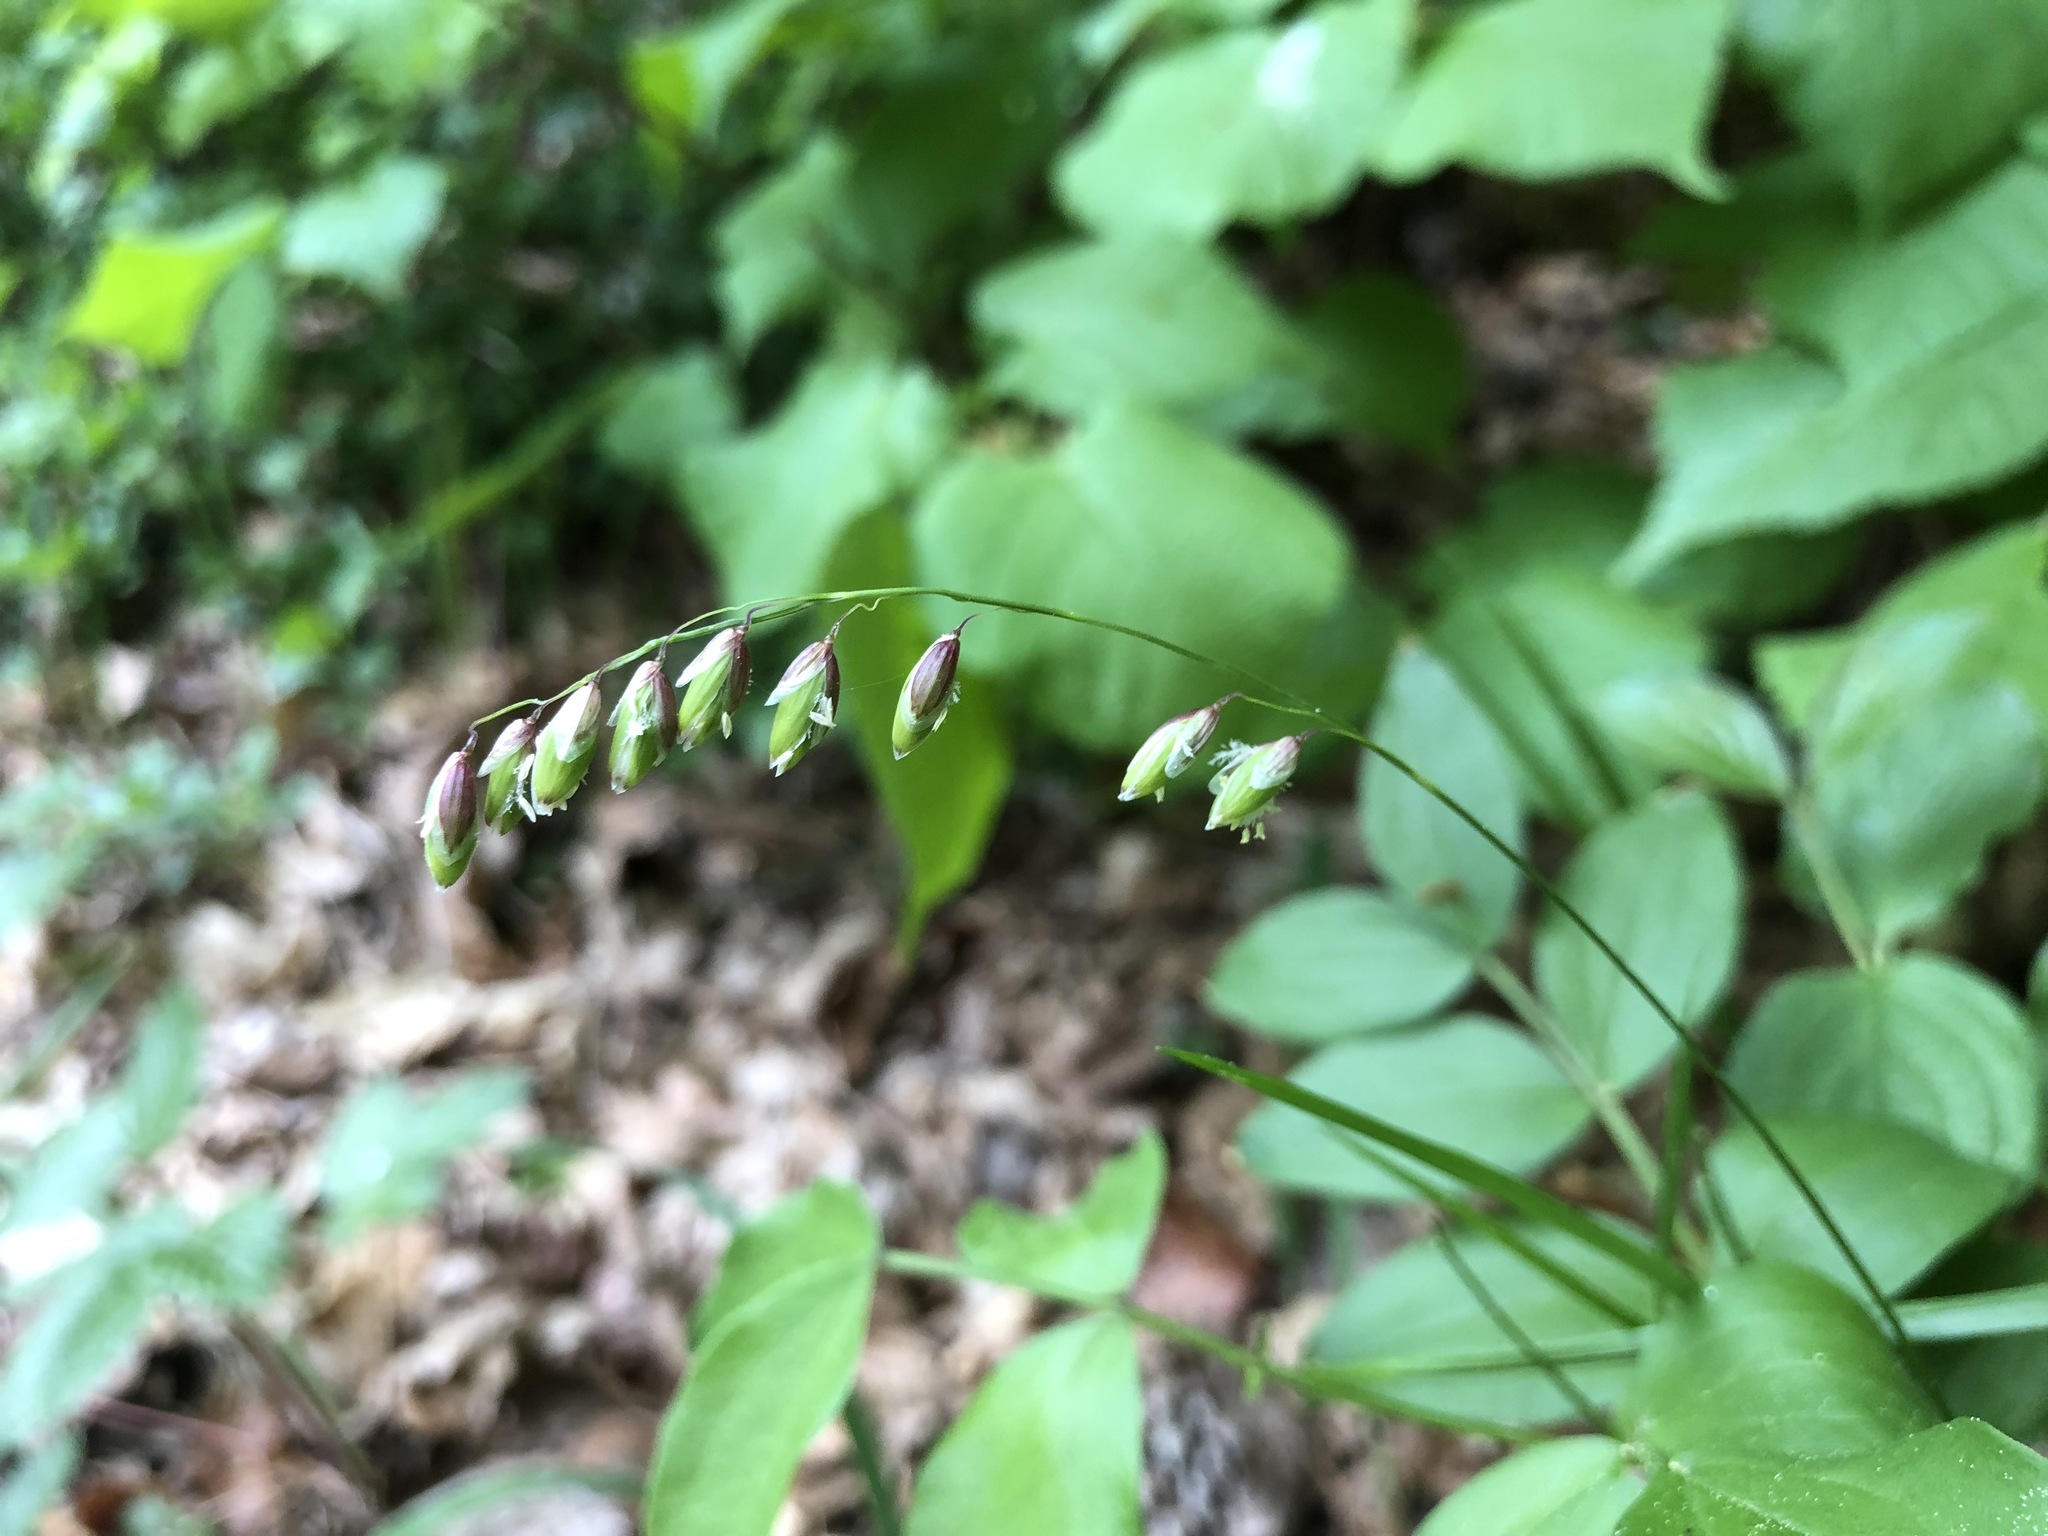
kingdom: Plantae
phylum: Tracheophyta
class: Liliopsida
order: Poales
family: Poaceae
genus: Melica
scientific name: Melica nutans
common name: Mountain melick
